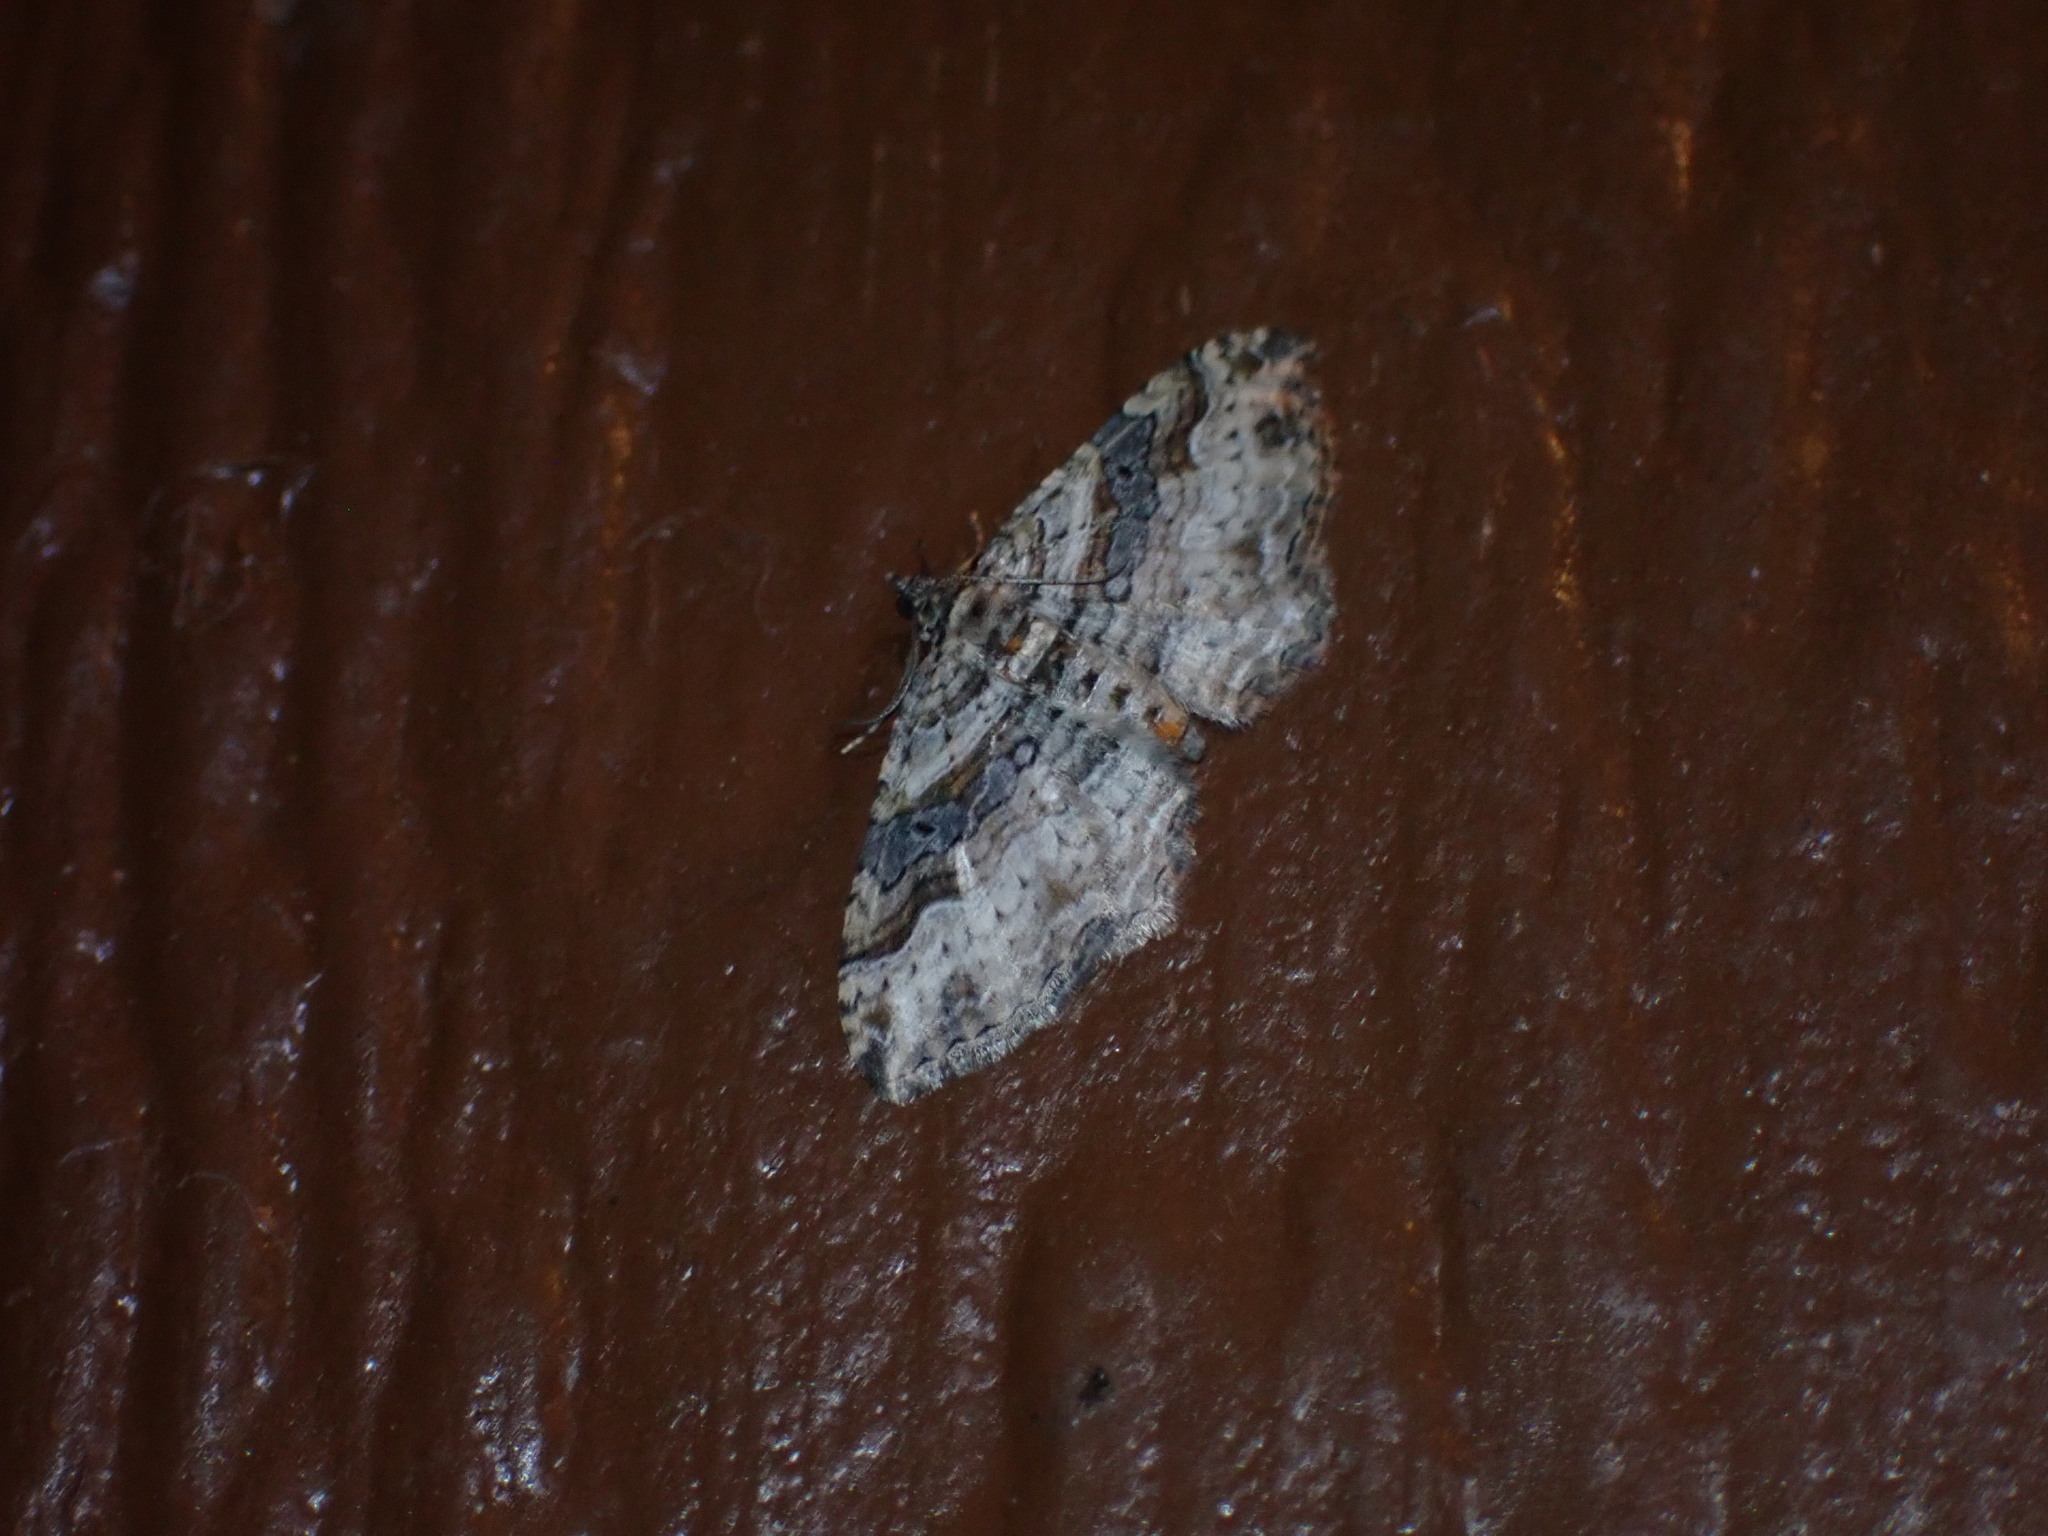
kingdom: Animalia
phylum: Arthropoda
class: Insecta
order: Lepidoptera
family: Geometridae
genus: Costaconvexa
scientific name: Costaconvexa centrostrigaria
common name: Bent-line carpet
